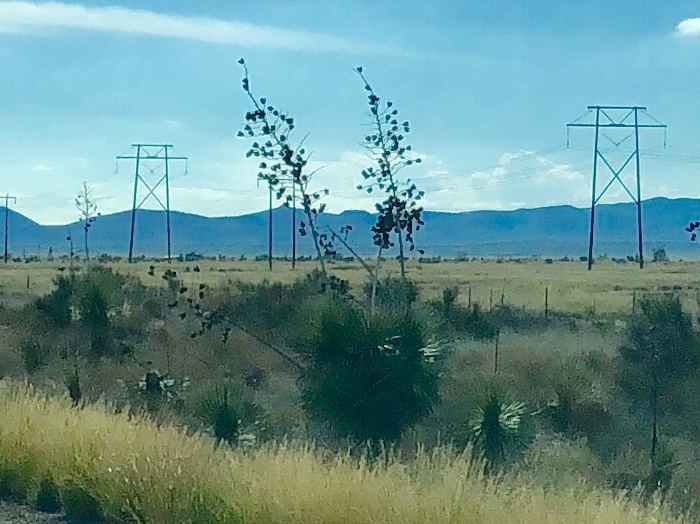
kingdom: Plantae
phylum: Tracheophyta
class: Liliopsida
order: Asparagales
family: Asparagaceae
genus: Yucca
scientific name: Yucca elata
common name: Palmella
